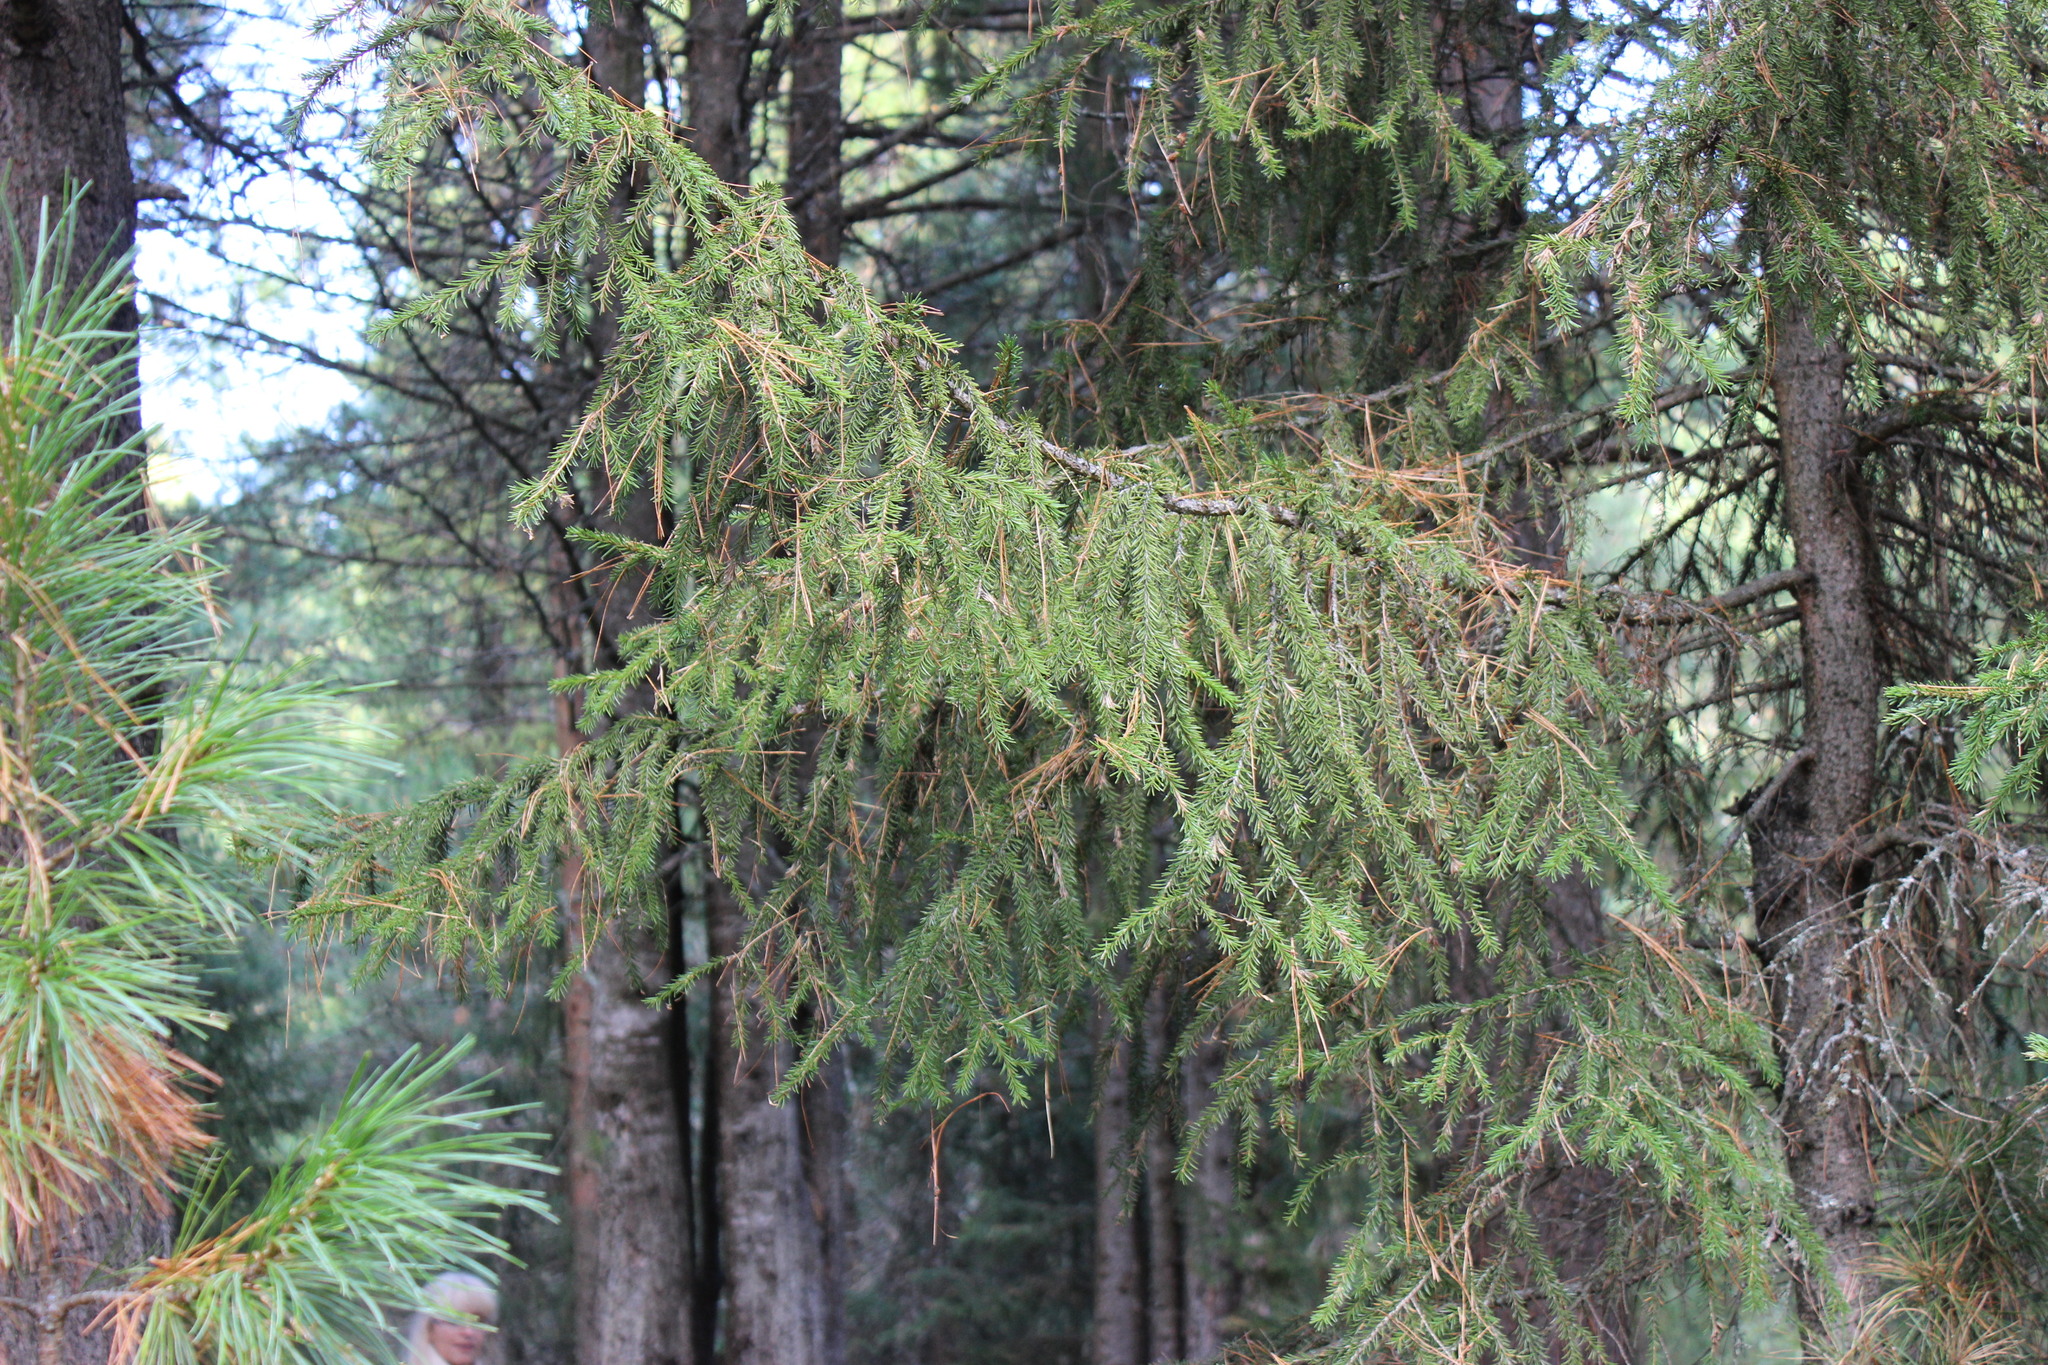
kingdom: Plantae
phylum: Tracheophyta
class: Pinopsida
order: Pinales
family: Pinaceae
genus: Picea
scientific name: Picea obovata
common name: Siberian spruce
